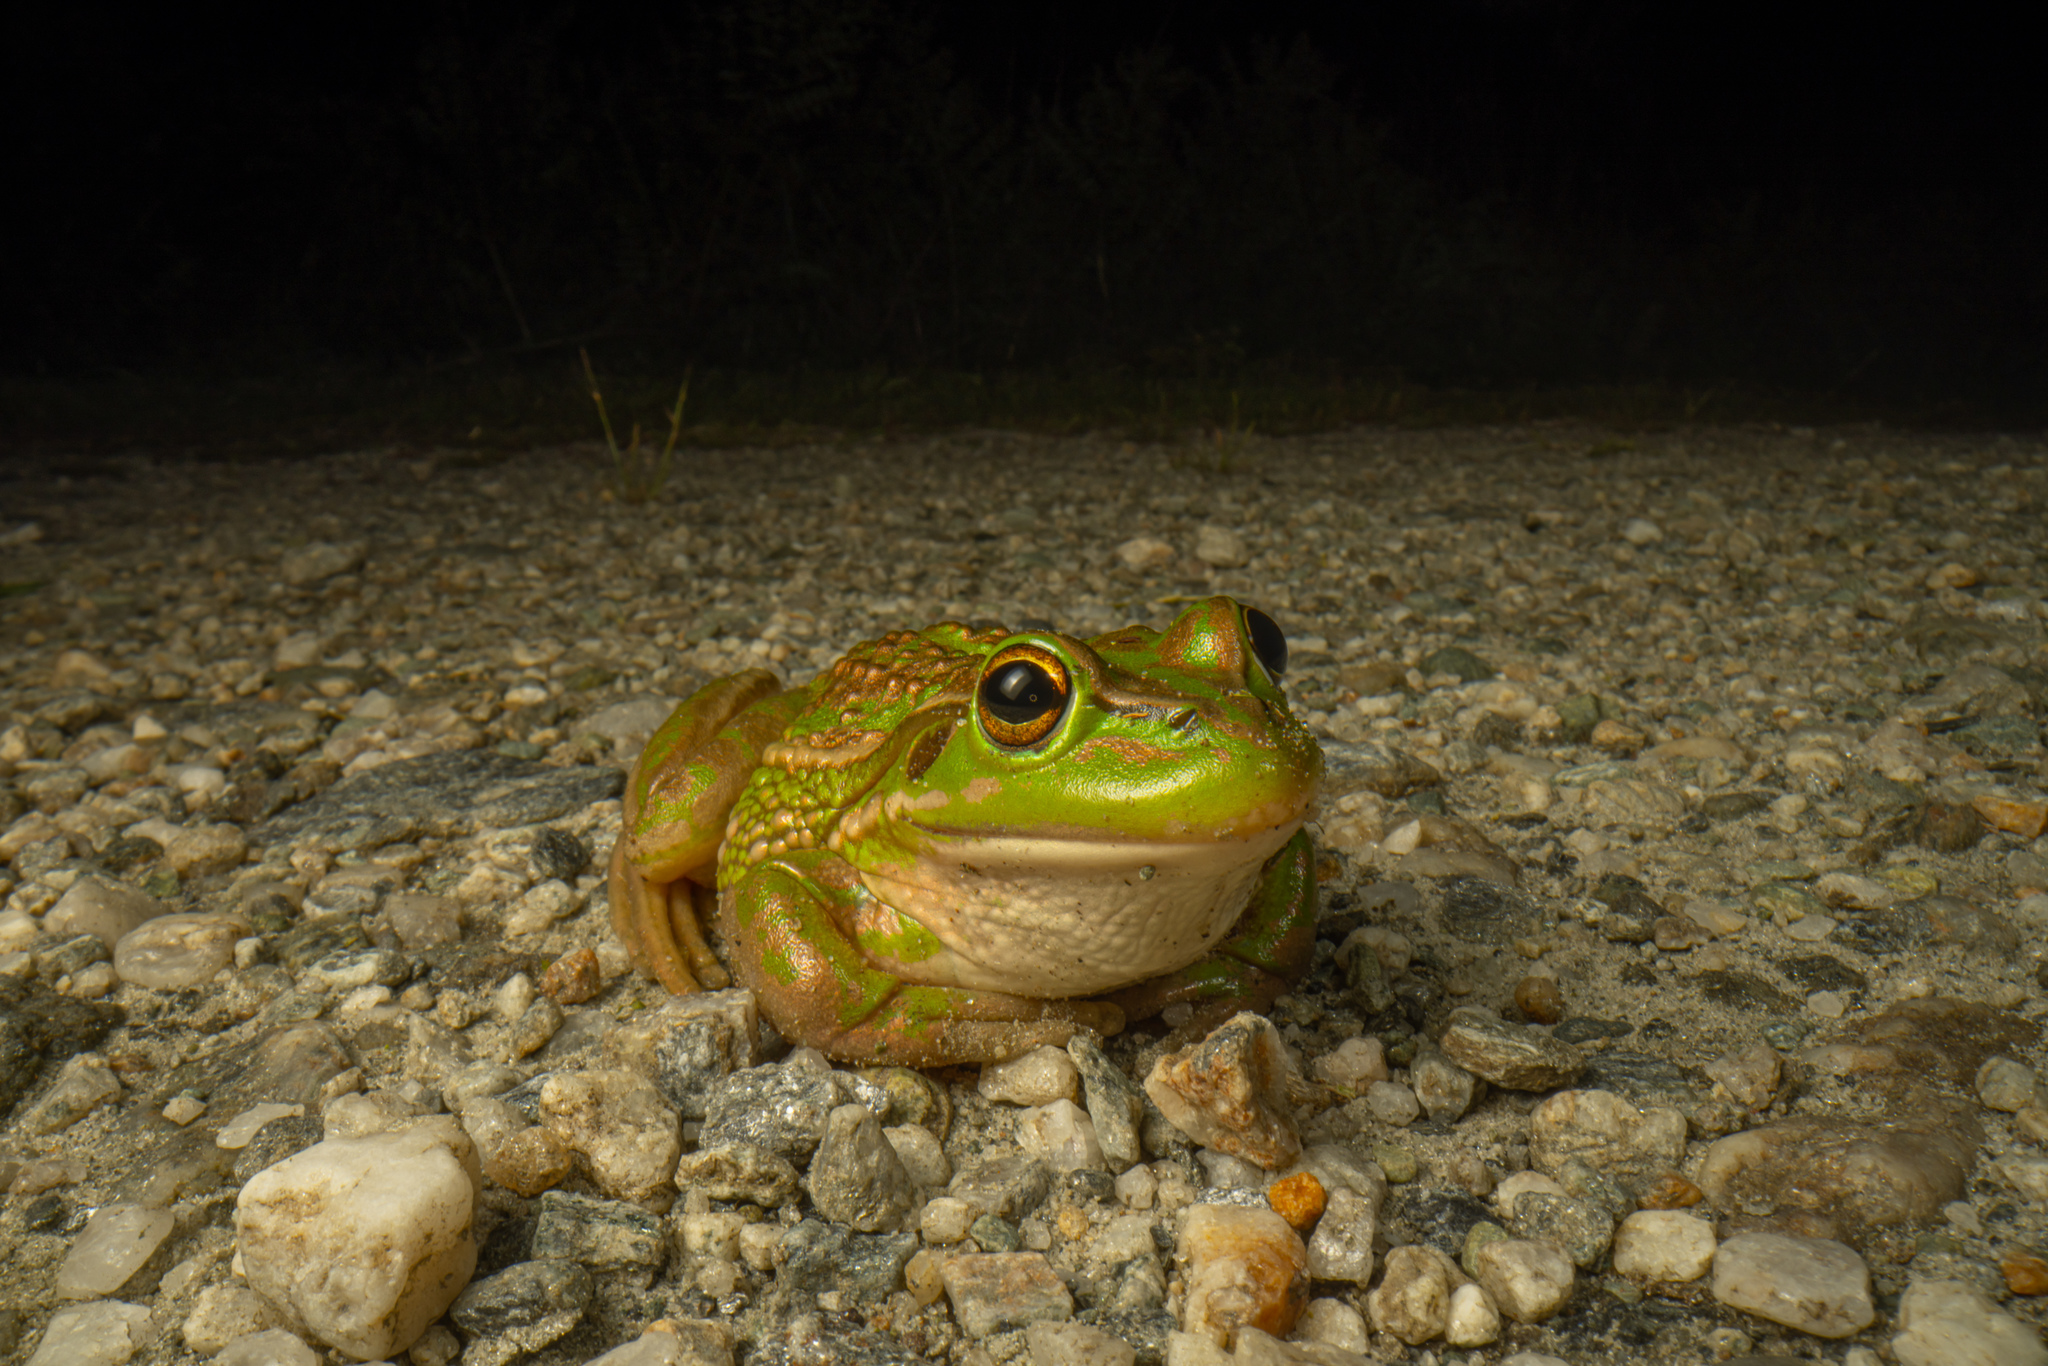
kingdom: Animalia
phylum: Chordata
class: Amphibia
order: Anura
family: Pelodryadidae
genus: Ranoidea
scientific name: Ranoidea raniformis
